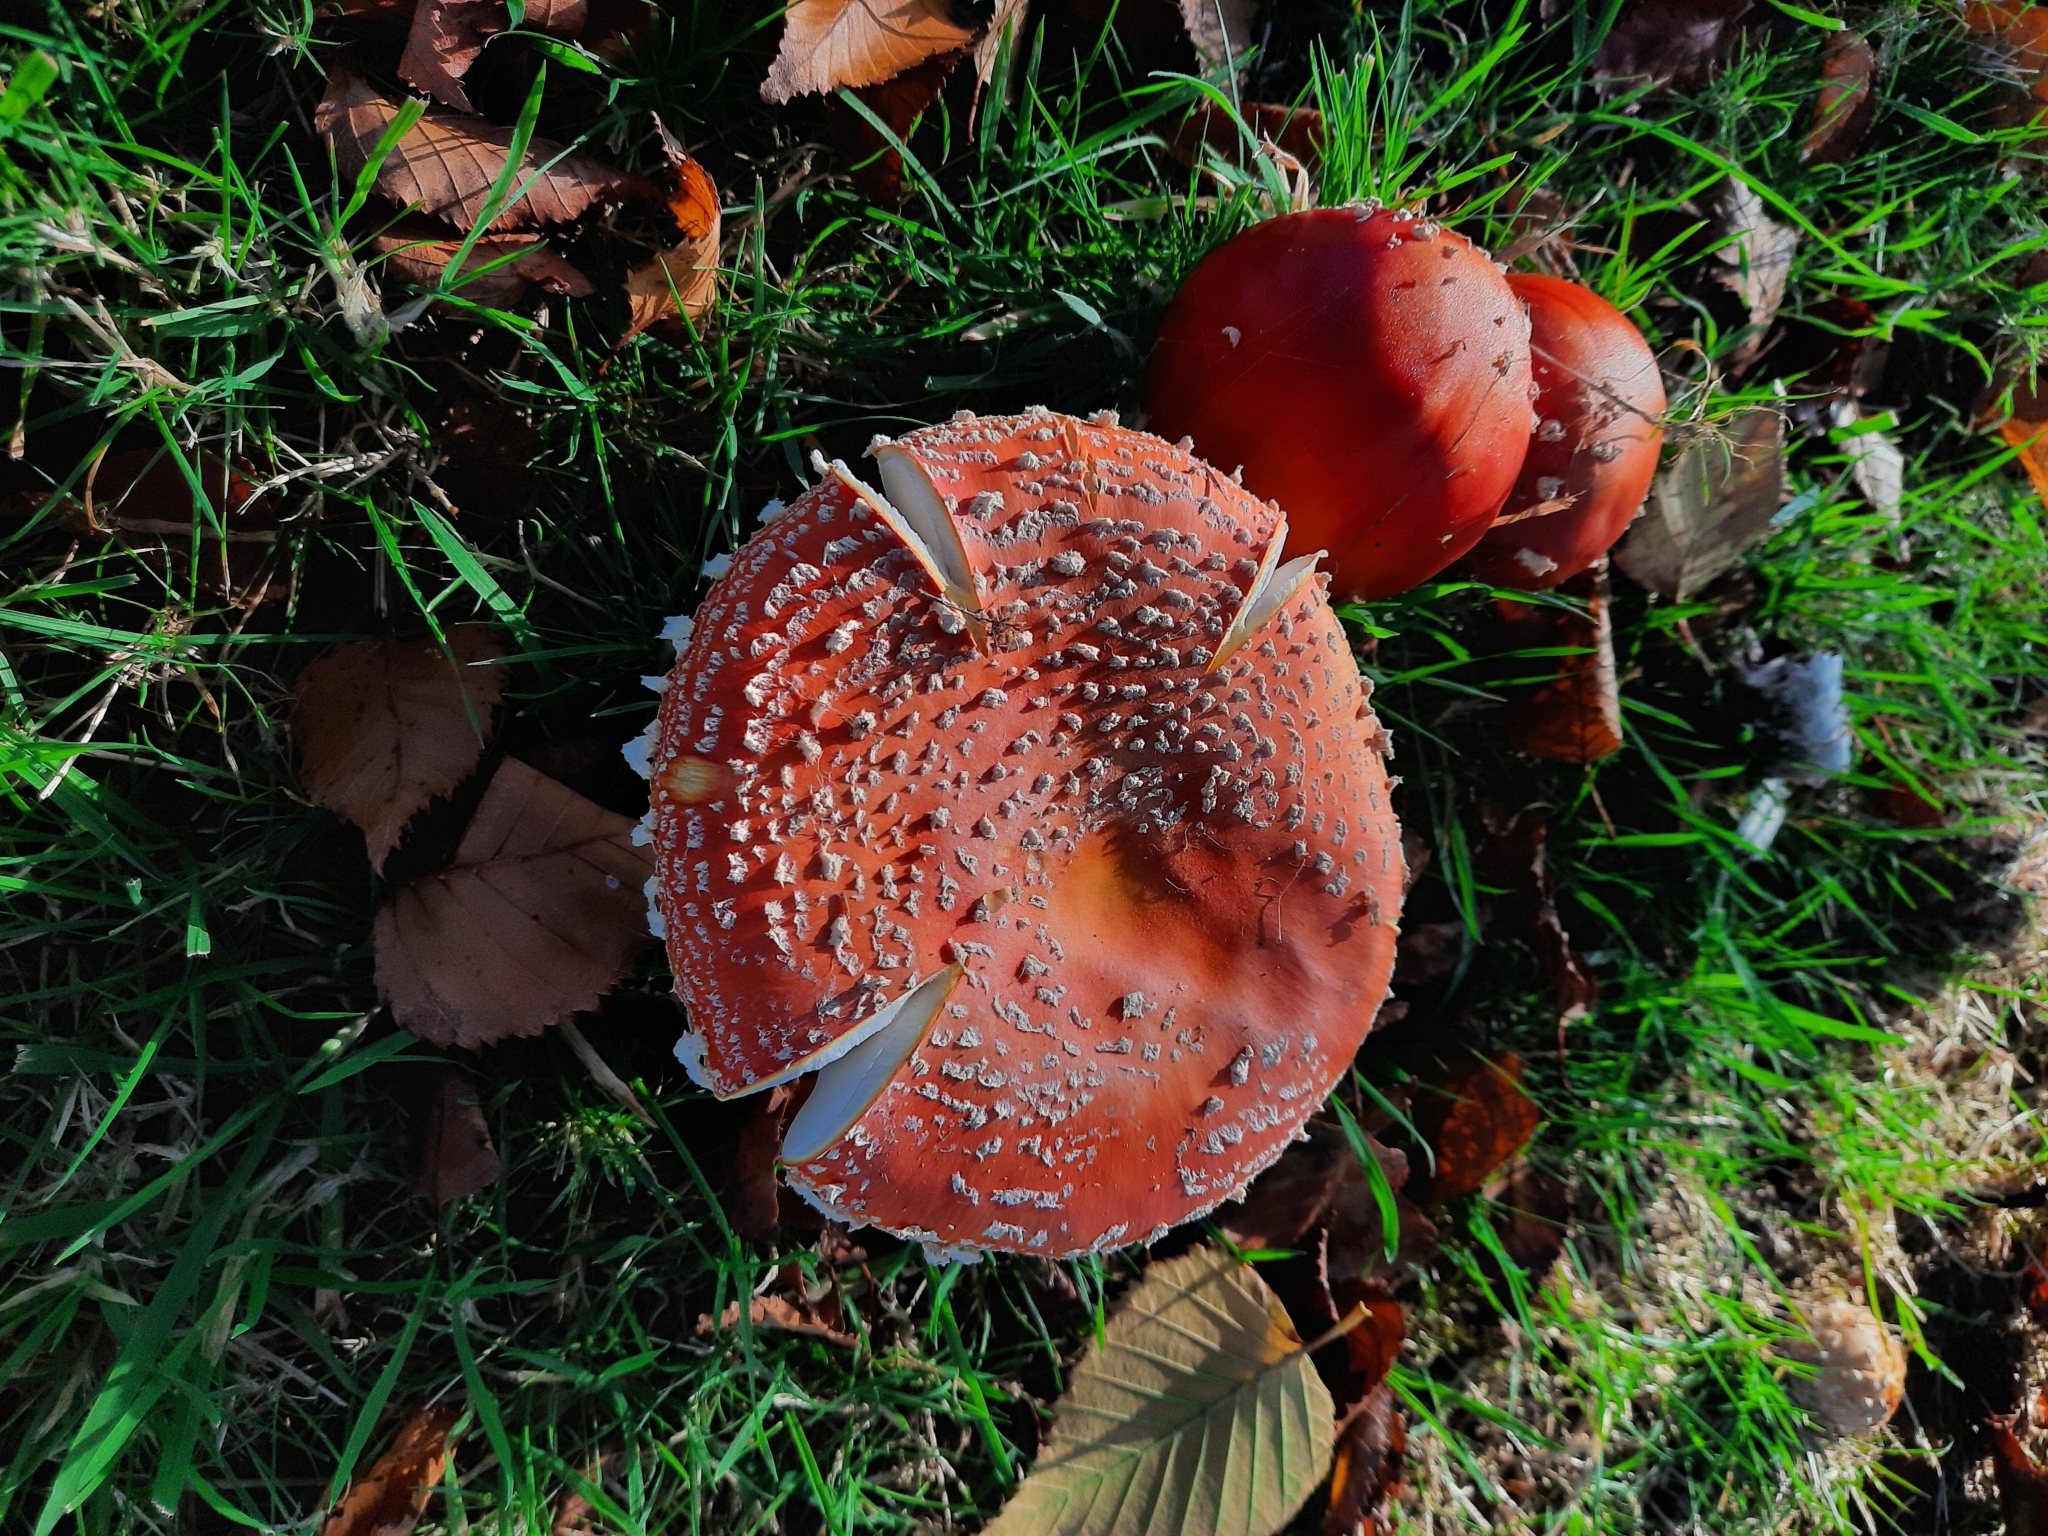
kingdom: Fungi
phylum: Basidiomycota
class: Agaricomycetes
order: Agaricales
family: Amanitaceae
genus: Amanita
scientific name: Amanita muscaria
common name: Fly agaric
